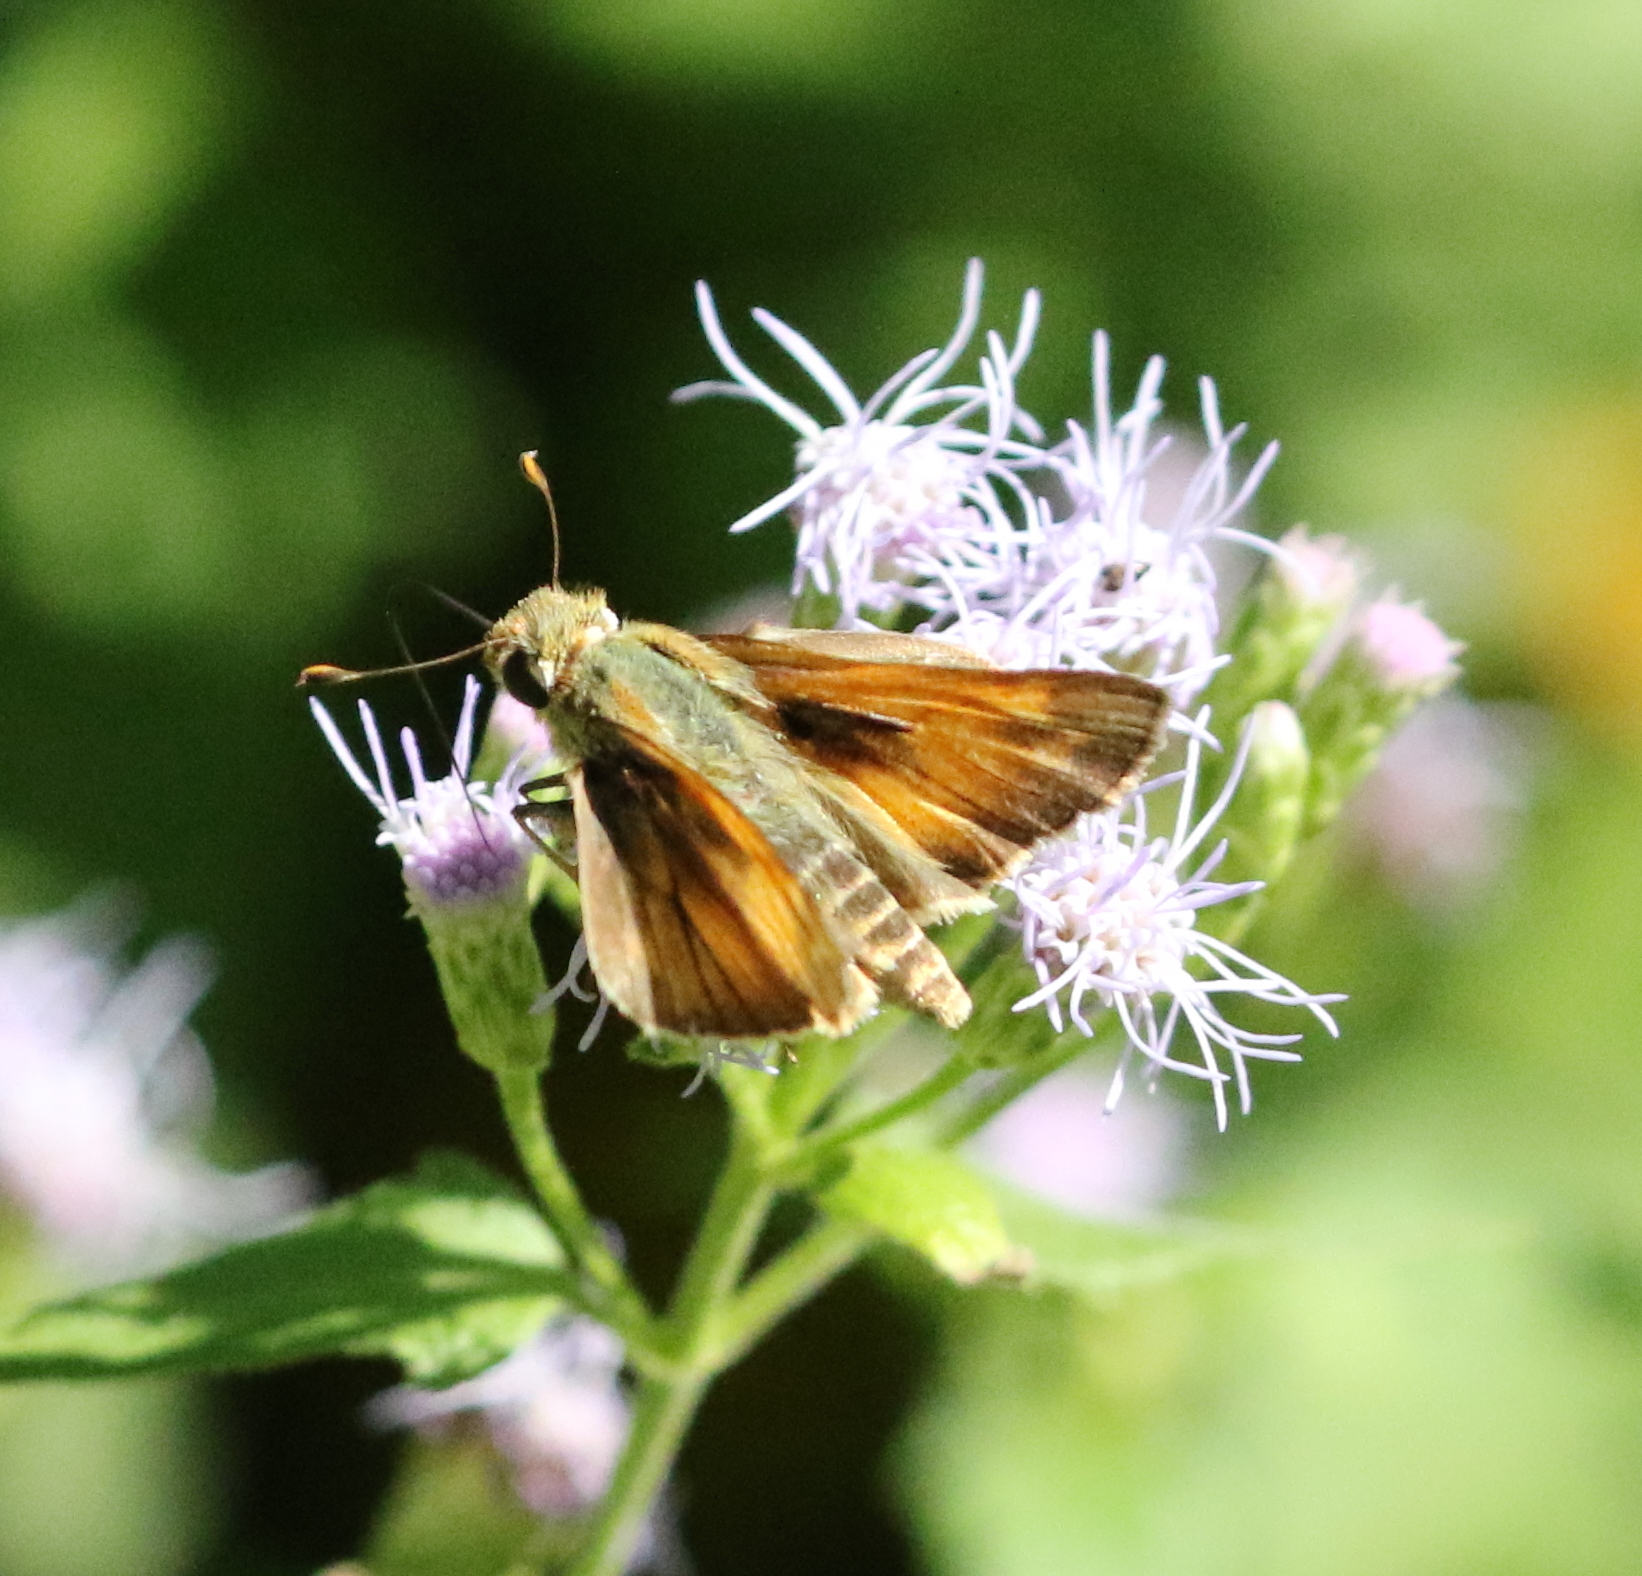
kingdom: Animalia
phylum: Arthropoda
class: Insecta
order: Lepidoptera
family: Hesperiidae
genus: Atalopedes
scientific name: Atalopedes
